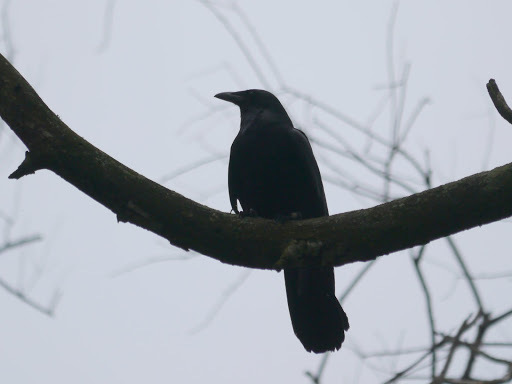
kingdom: Animalia
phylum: Chordata
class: Aves
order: Passeriformes
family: Corvidae
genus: Corvus
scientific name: Corvus
